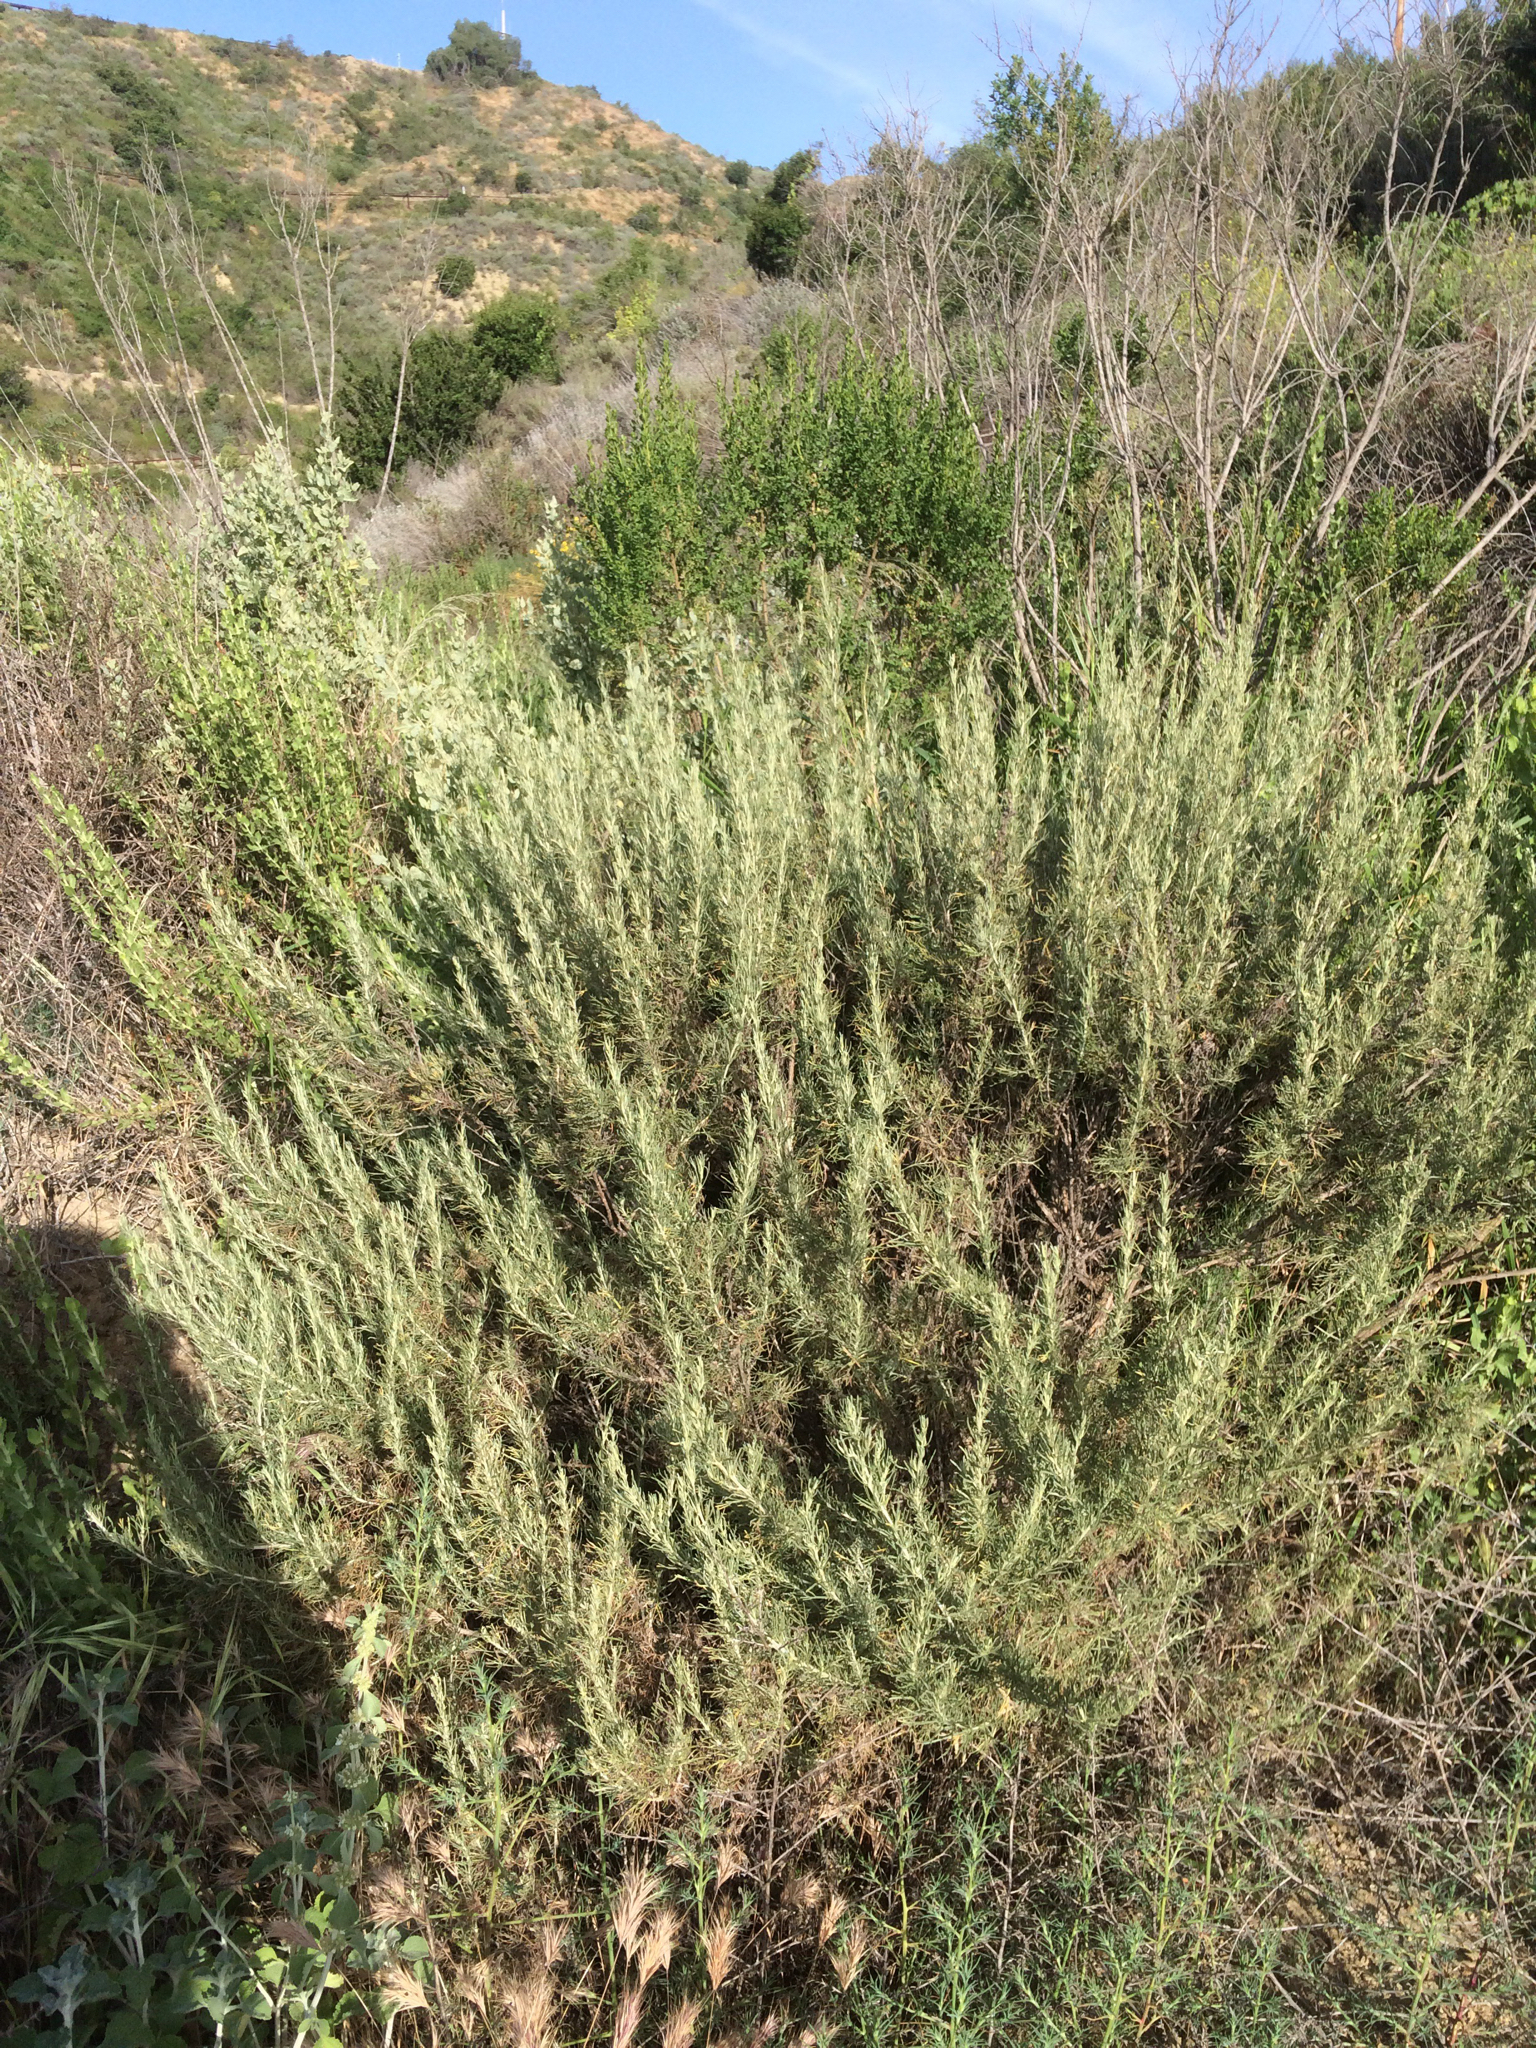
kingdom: Plantae
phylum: Tracheophyta
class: Magnoliopsida
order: Asterales
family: Asteraceae
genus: Artemisia
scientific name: Artemisia californica
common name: California sagebrush
